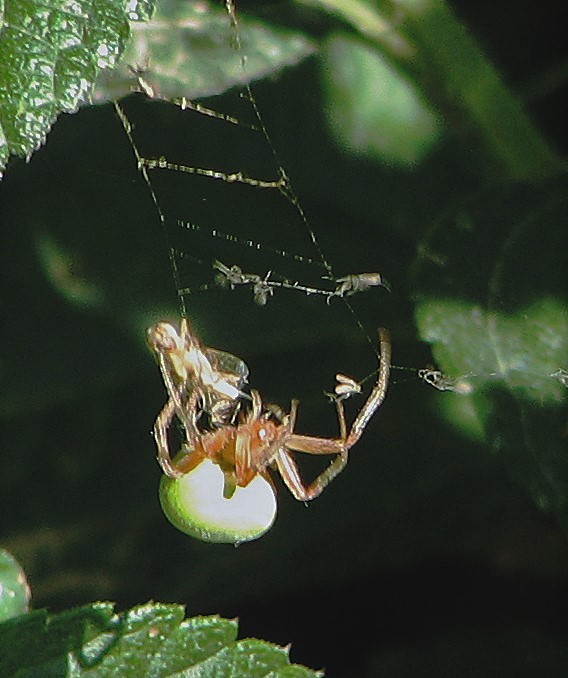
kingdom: Animalia
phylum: Arthropoda
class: Arachnida
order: Araneae
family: Araneidae
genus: Araneus
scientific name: Araneus lathyrinus
